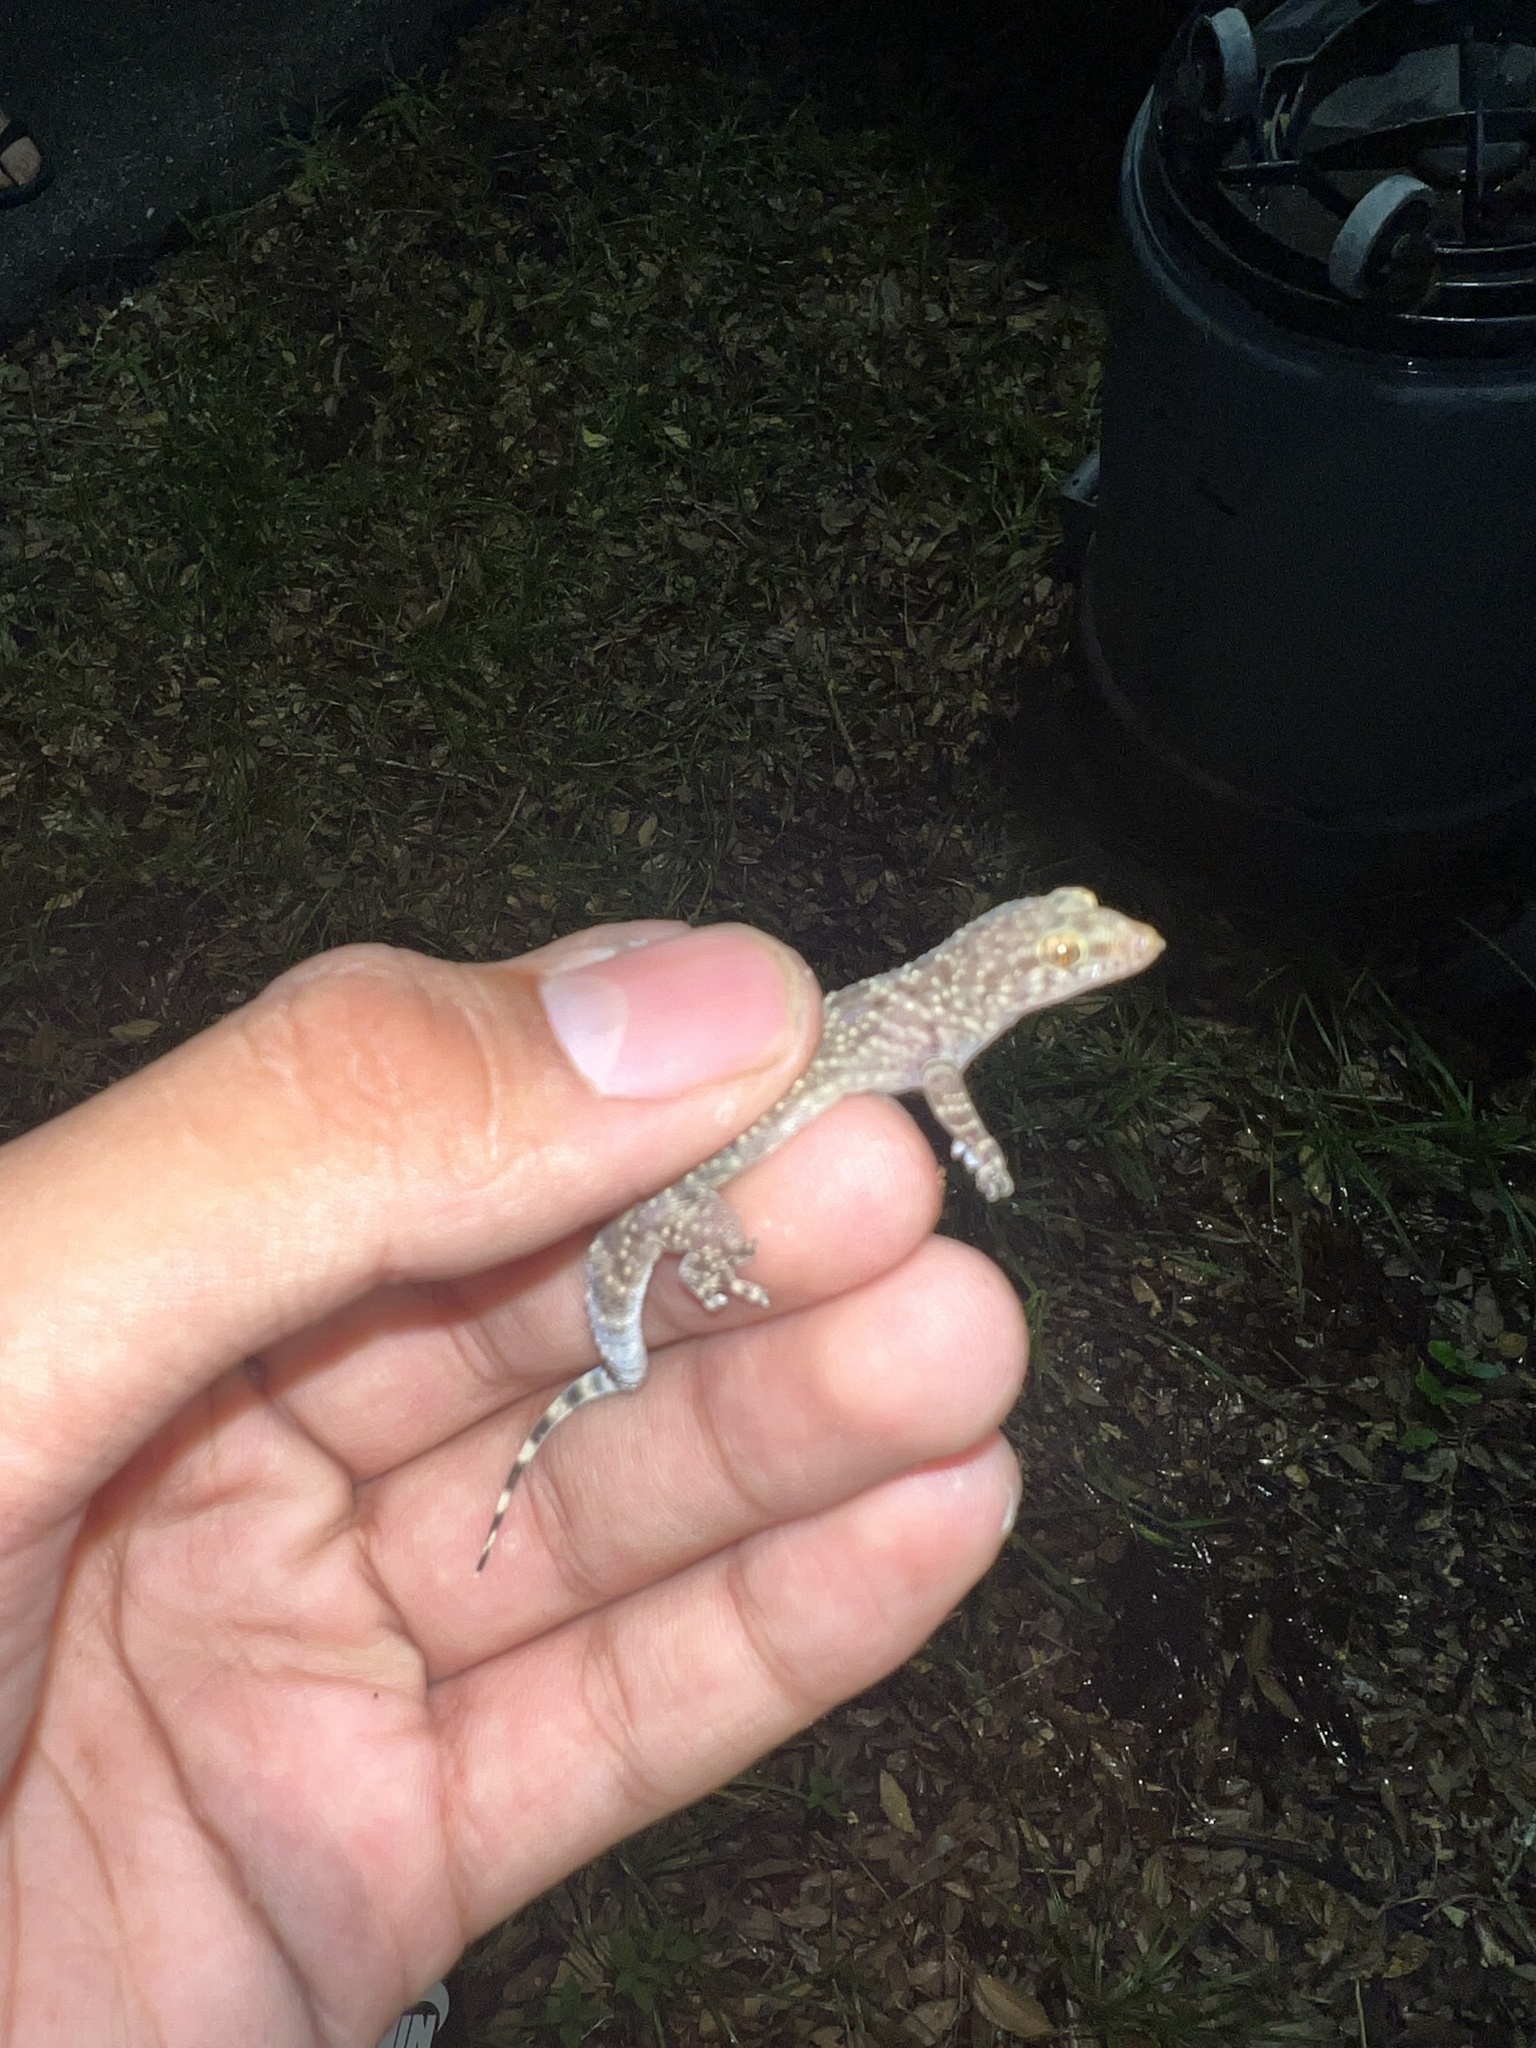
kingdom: Animalia
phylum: Chordata
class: Squamata
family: Gekkonidae
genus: Hemidactylus
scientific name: Hemidactylus turcicus
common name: Turkish gecko
